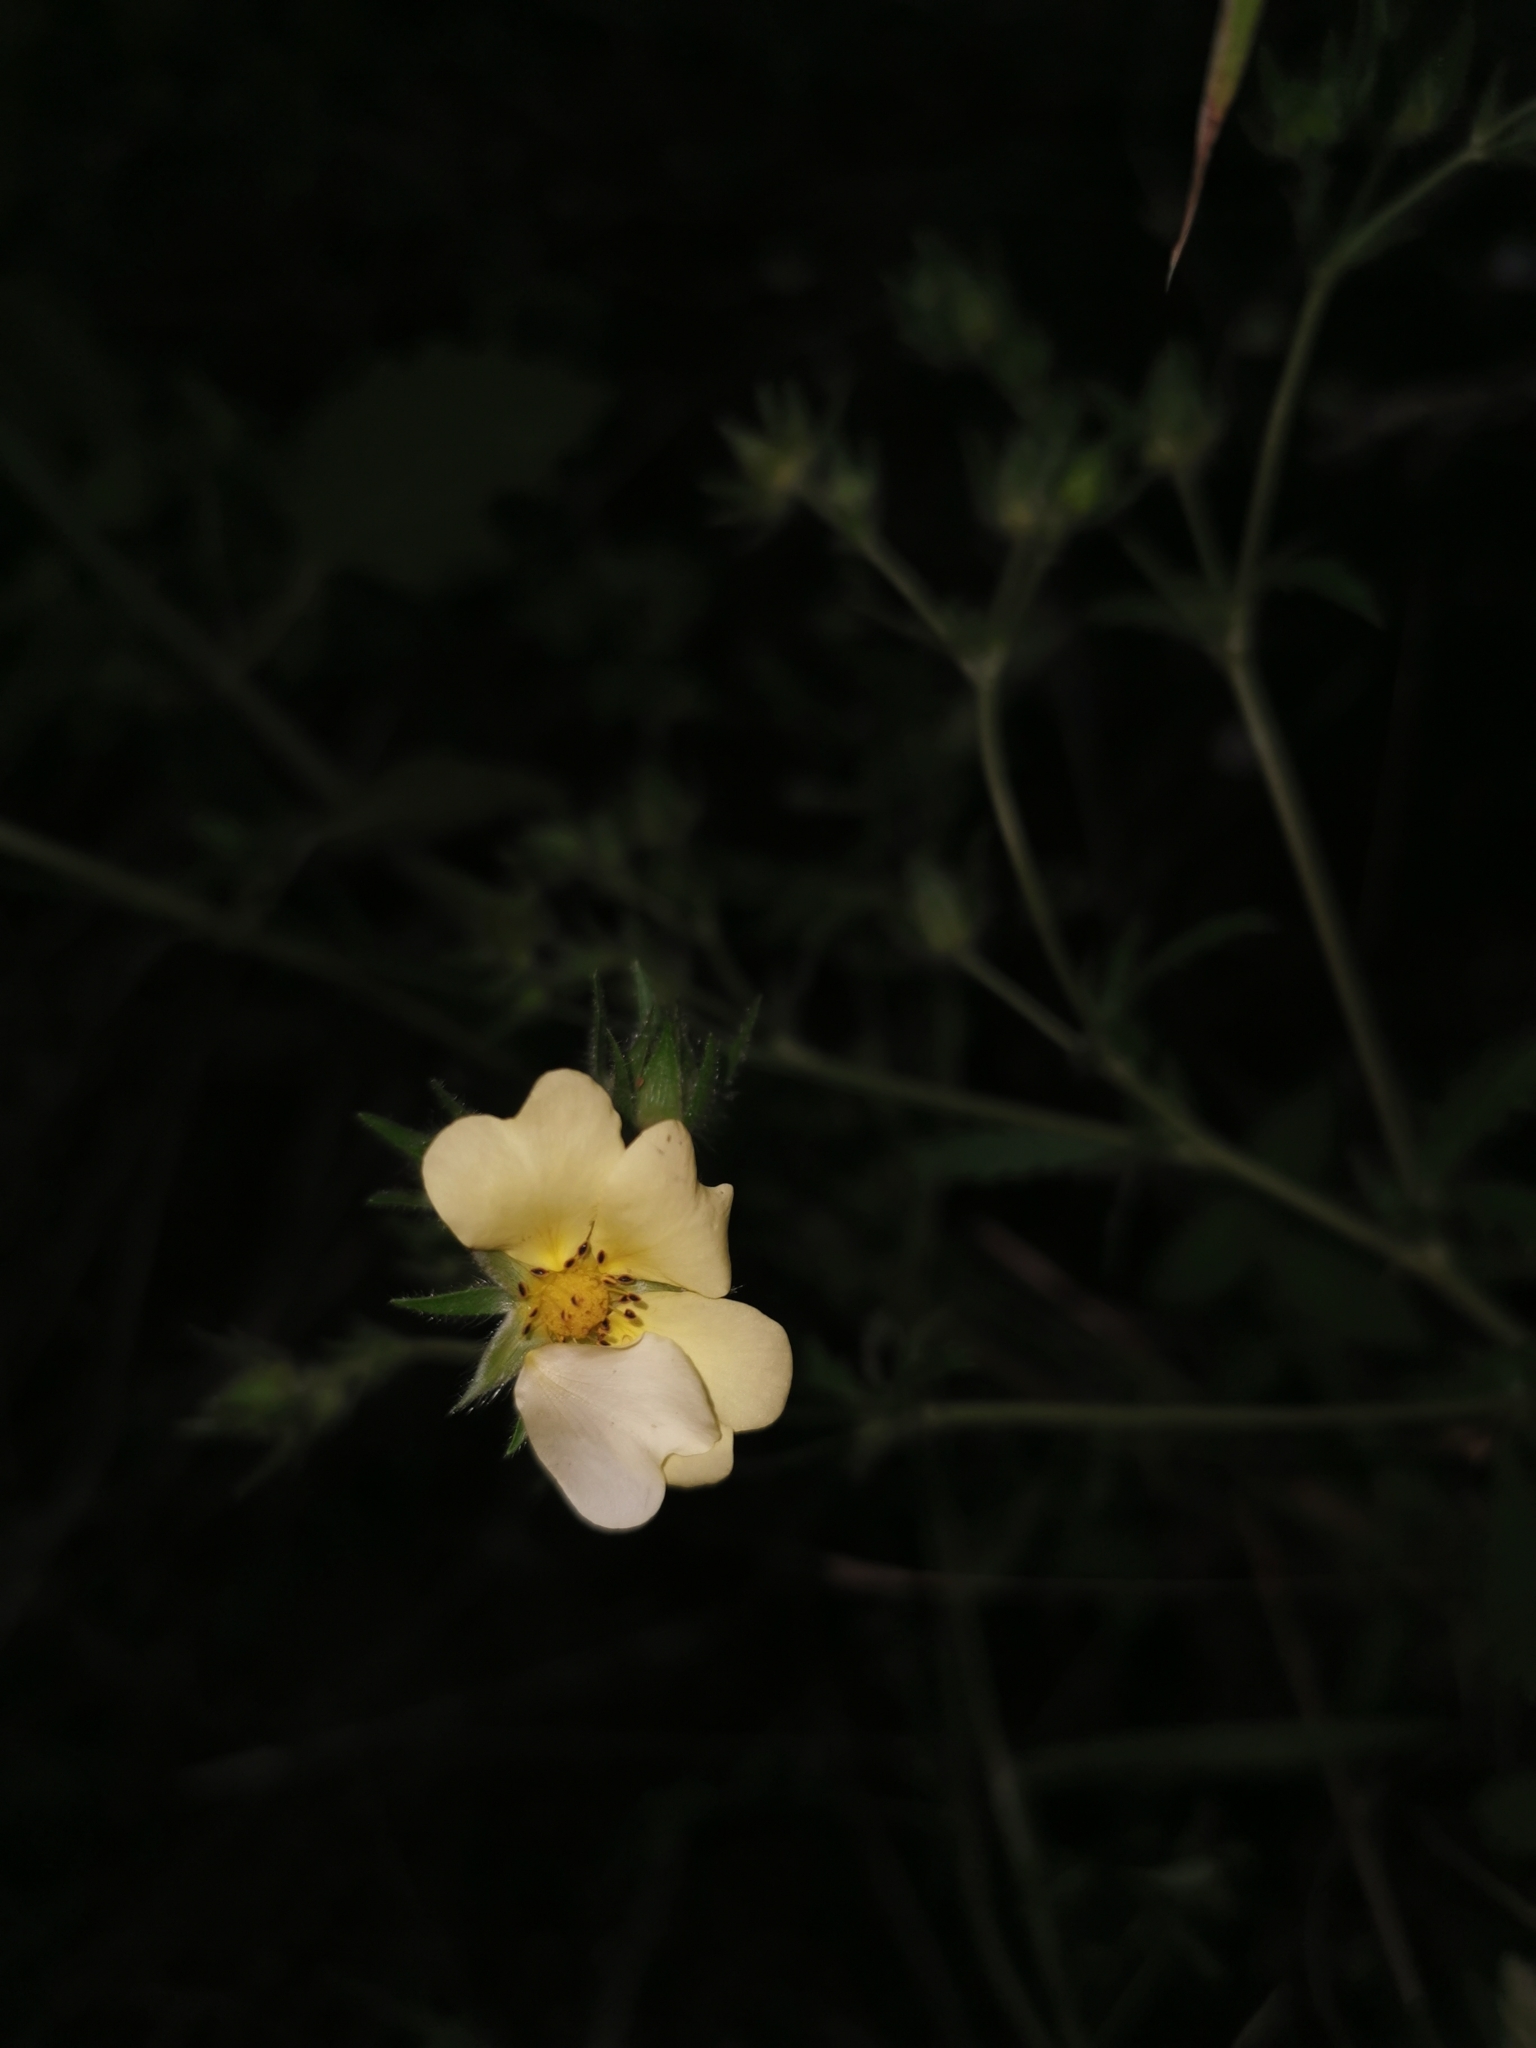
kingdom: Plantae
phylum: Tracheophyta
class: Magnoliopsida
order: Rosales
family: Rosaceae
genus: Potentilla
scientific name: Potentilla recta
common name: Sulphur cinquefoil
